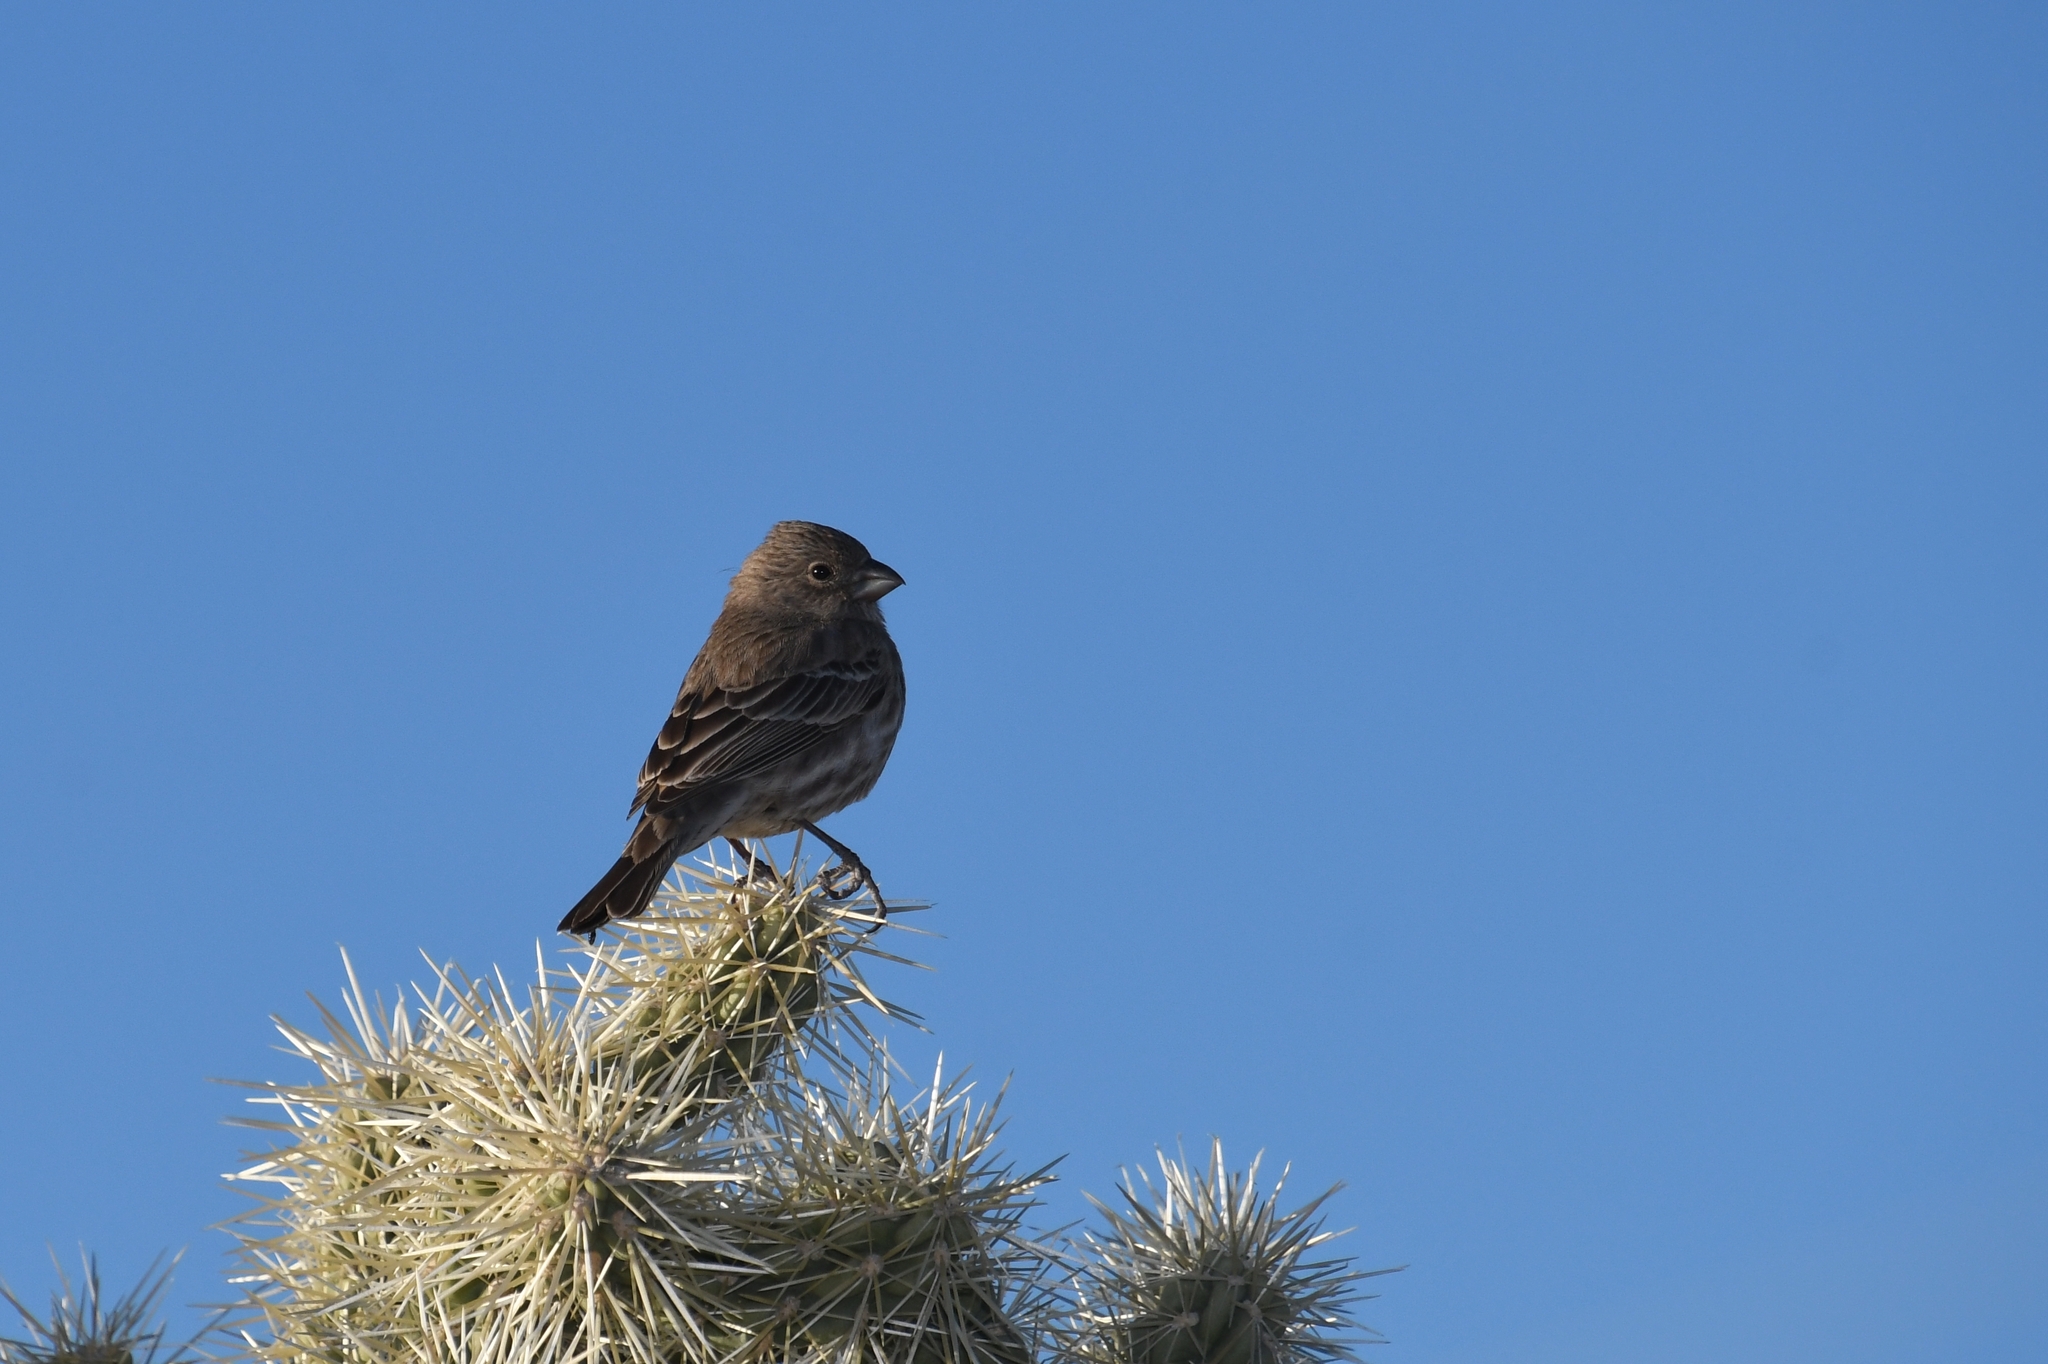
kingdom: Animalia
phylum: Chordata
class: Aves
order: Passeriformes
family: Fringillidae
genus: Haemorhous
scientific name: Haemorhous mexicanus
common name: House finch
